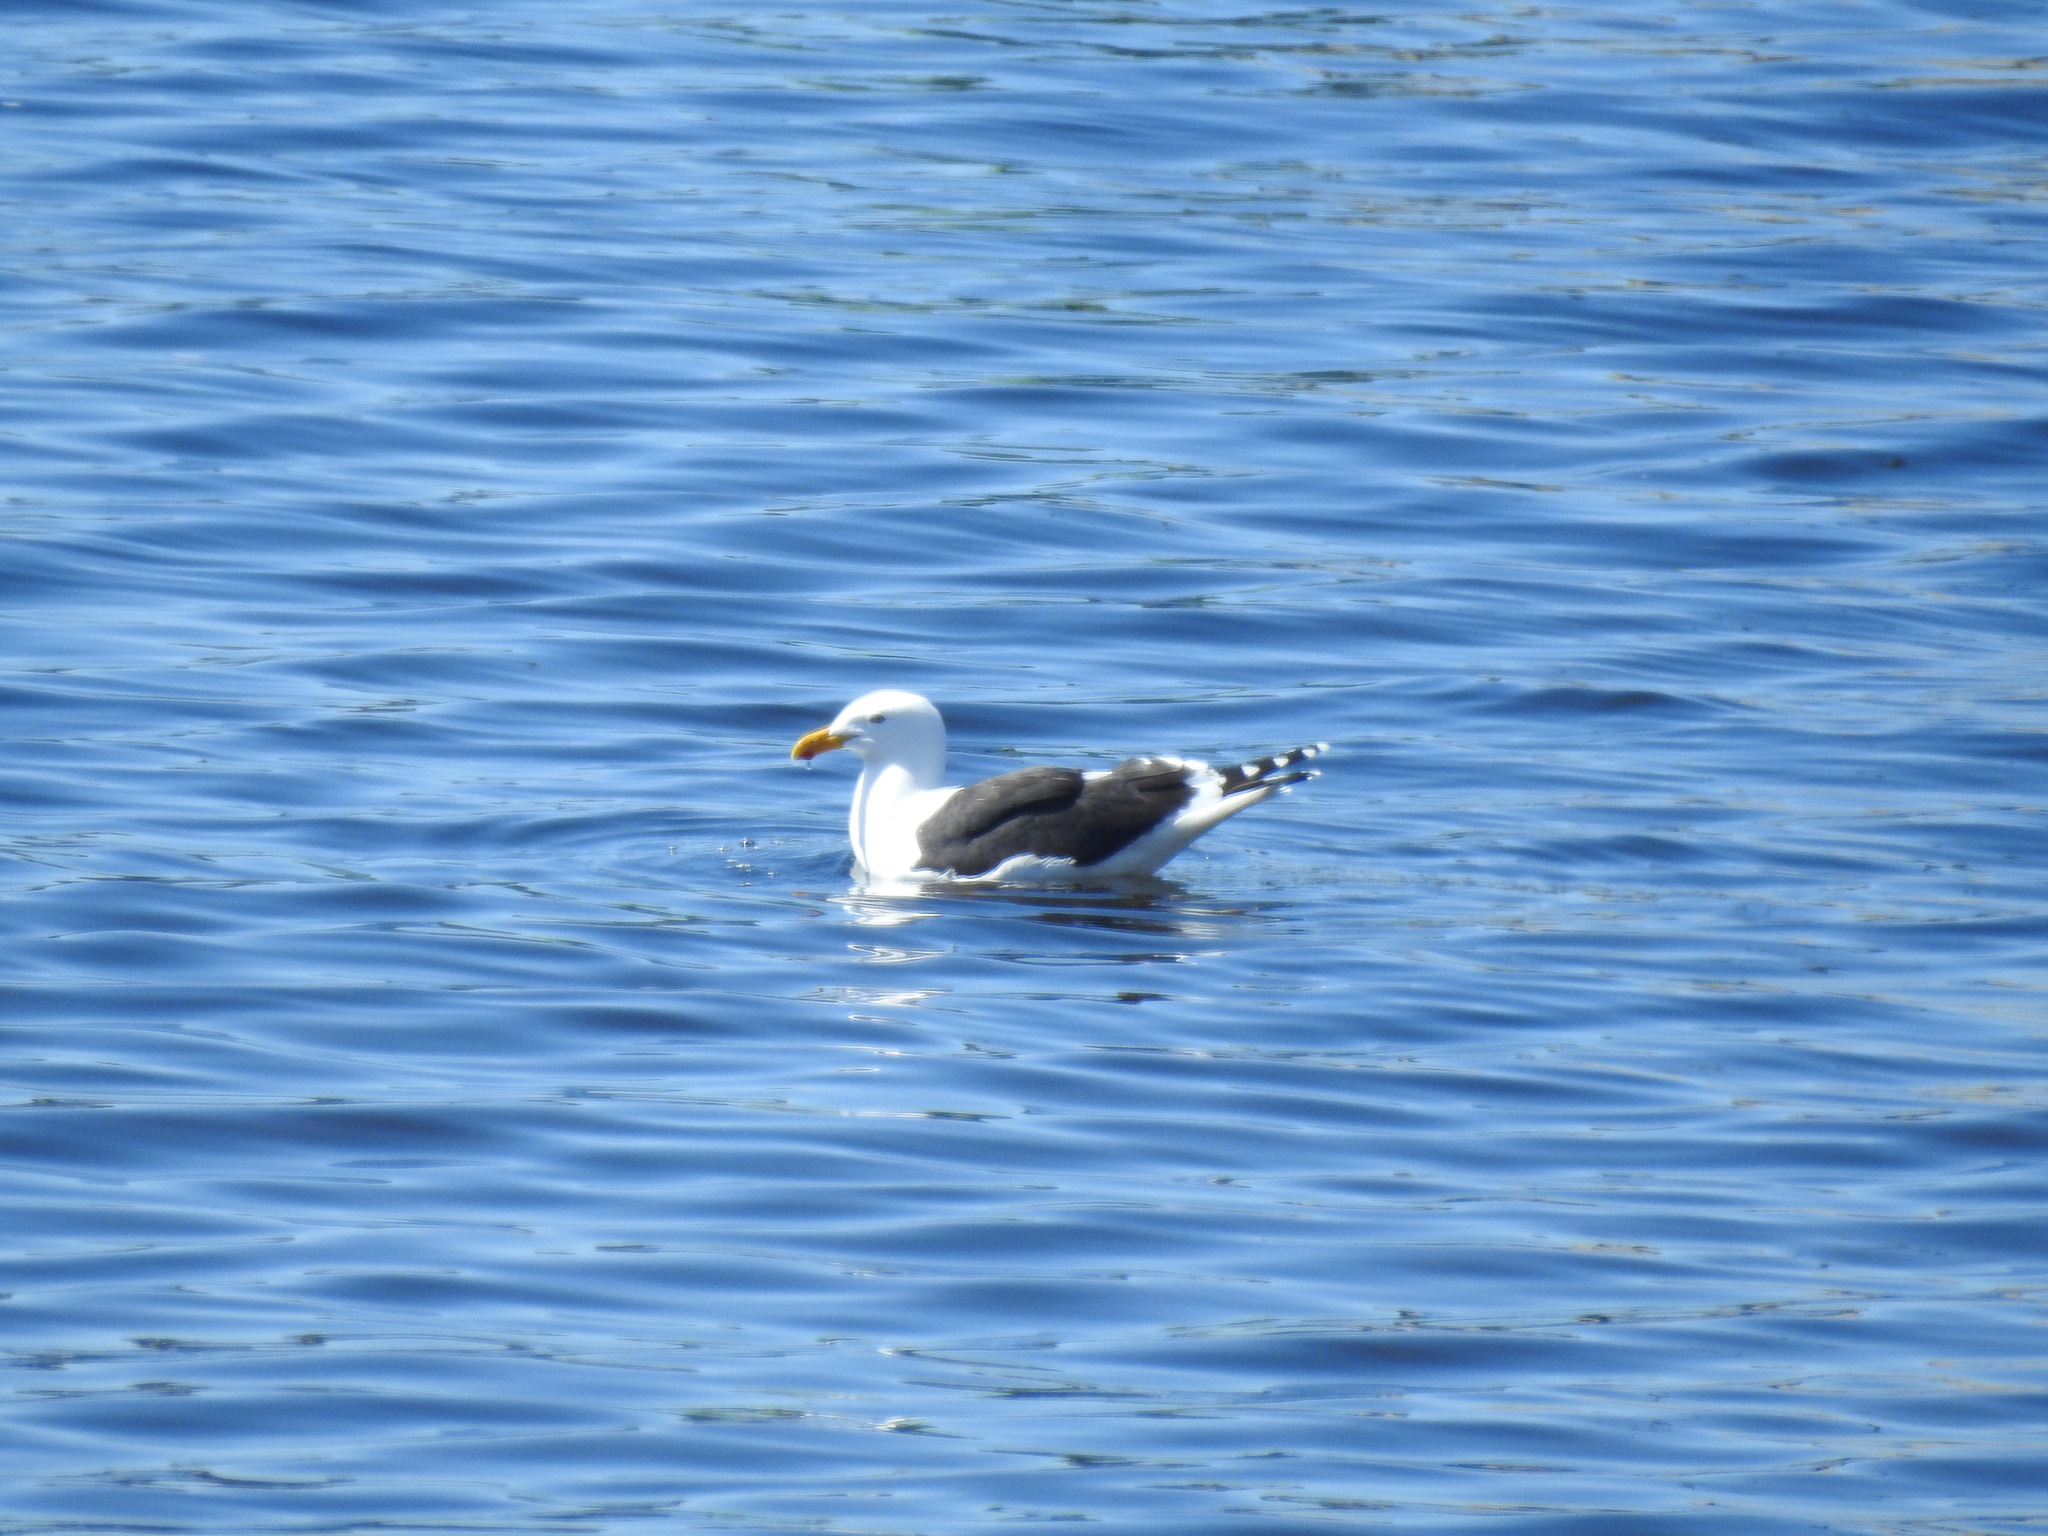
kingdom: Animalia
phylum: Chordata
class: Aves
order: Charadriiformes
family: Laridae
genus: Larus
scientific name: Larus dominicanus
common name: Kelp gull
